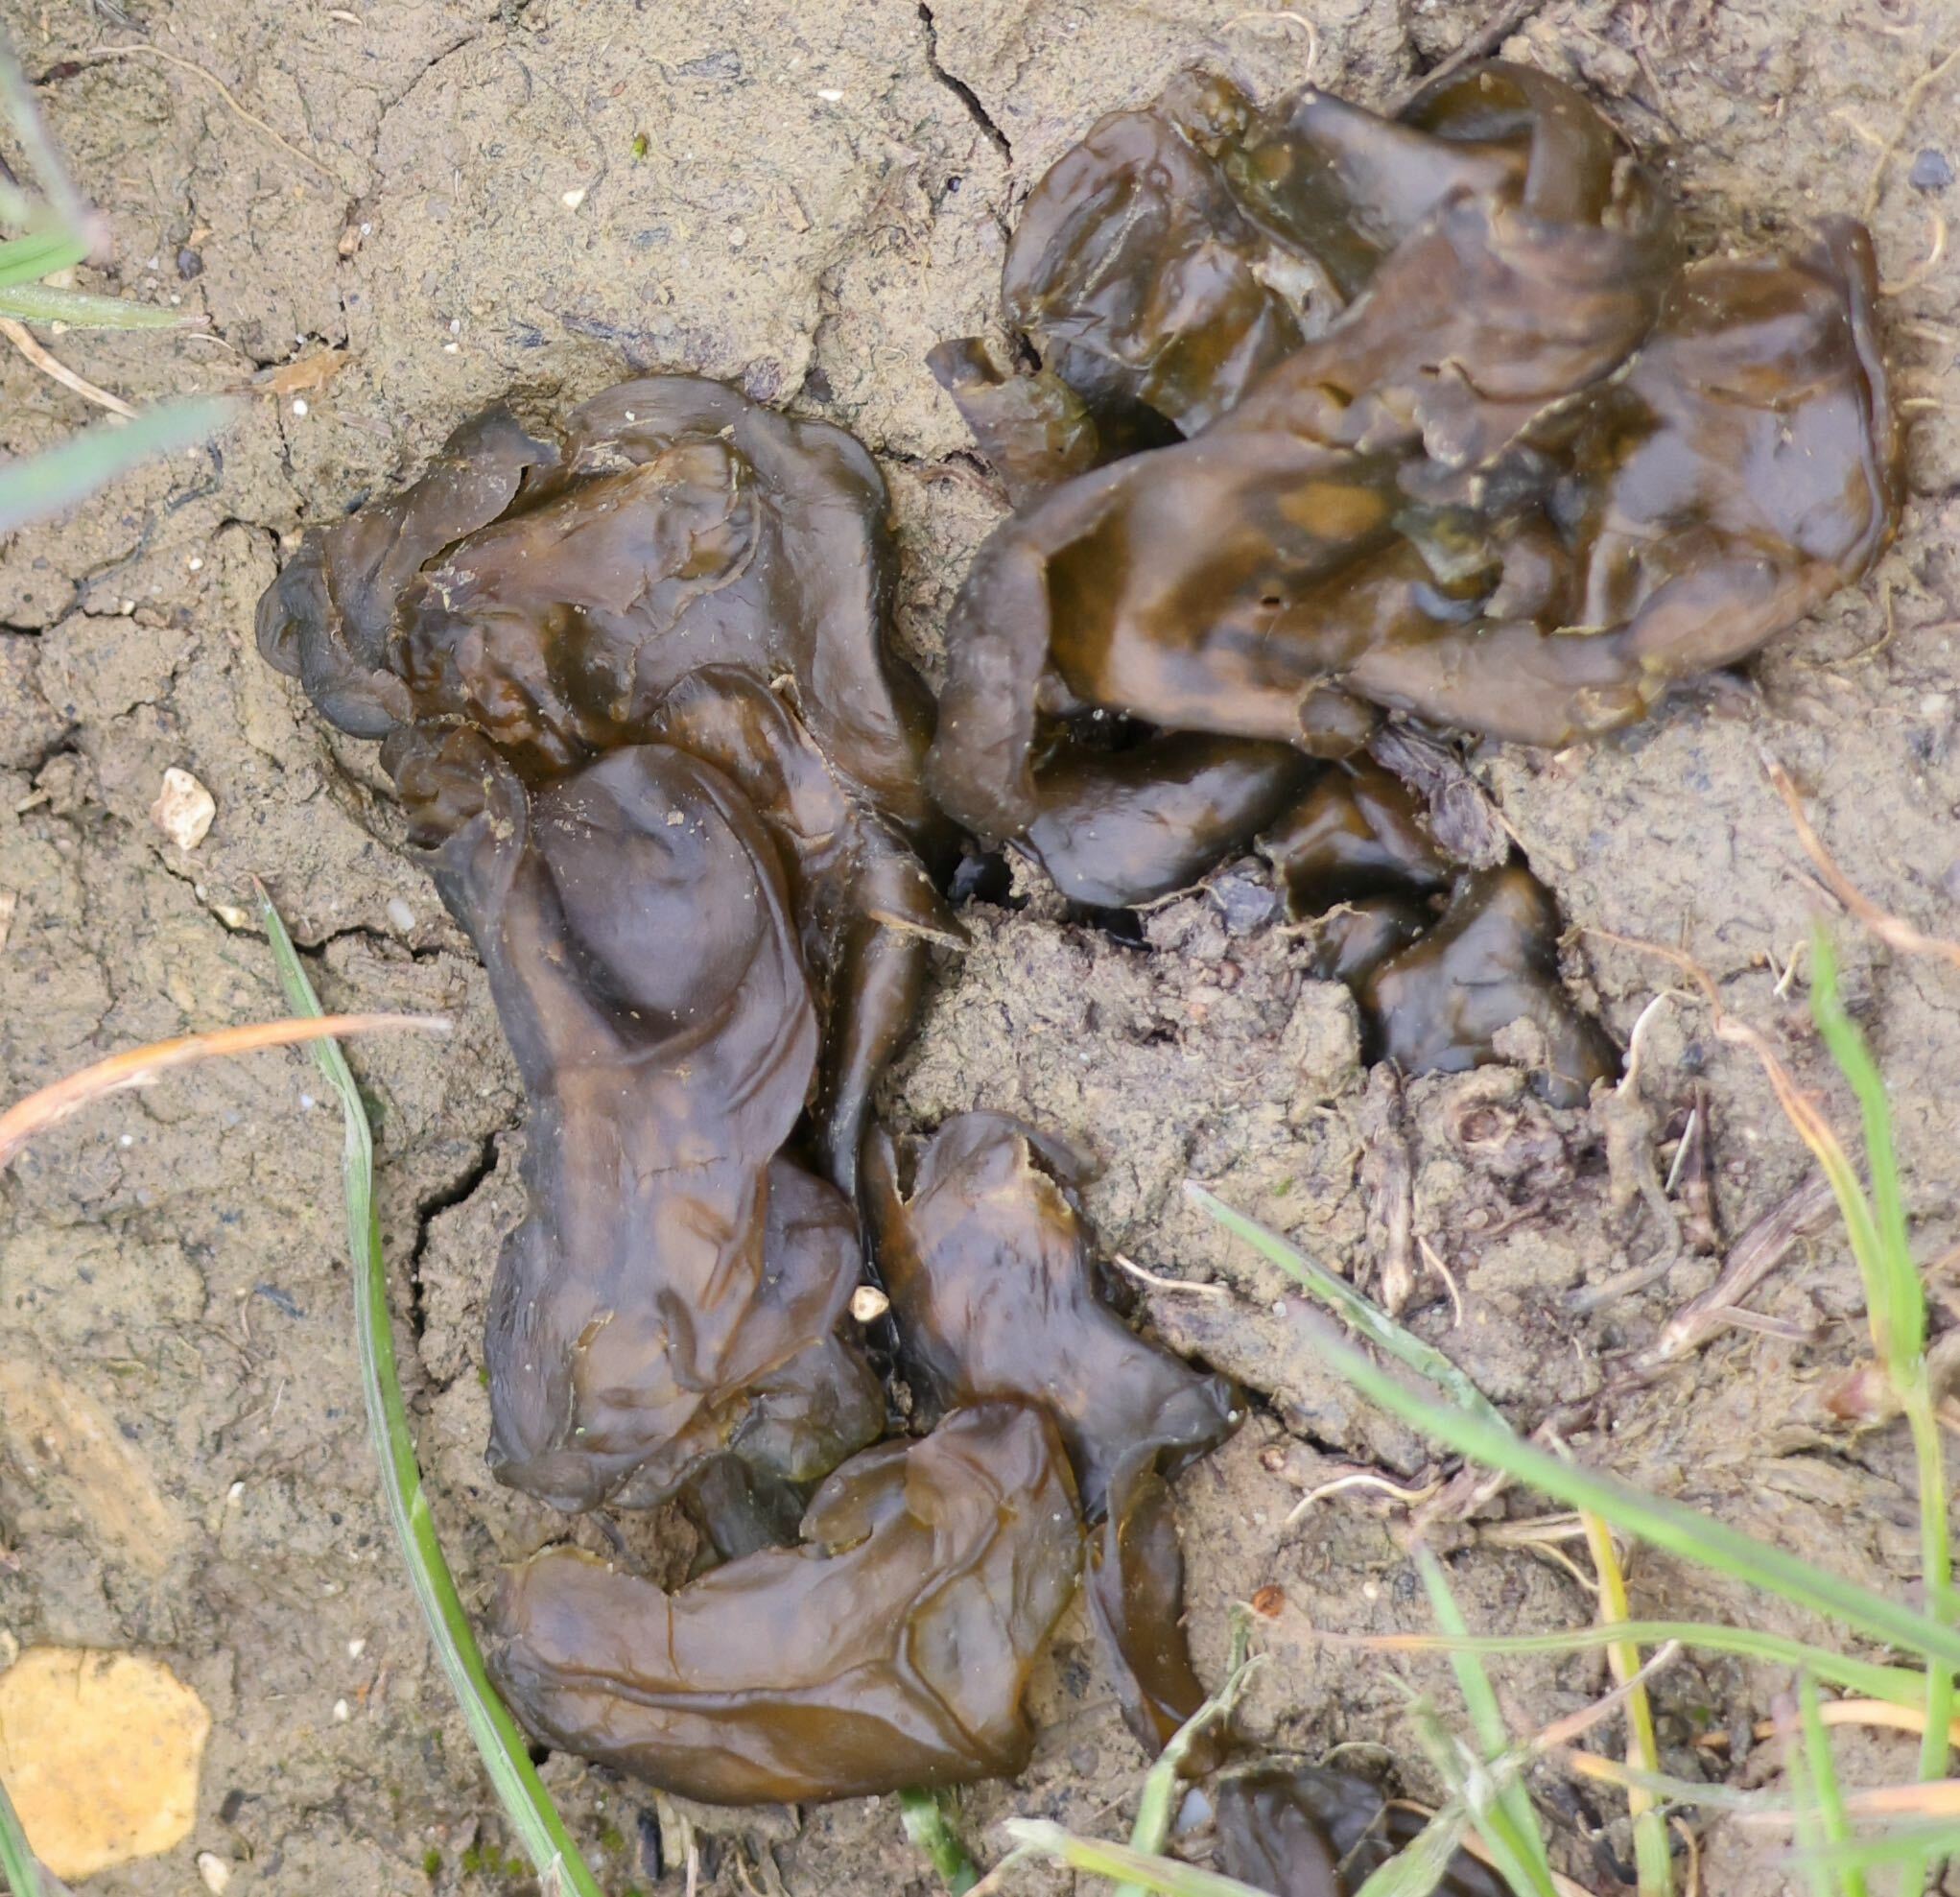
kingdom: Bacteria
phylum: Cyanobacteria
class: Cyanobacteriia
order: Cyanobacteriales
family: Nostocaceae
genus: Nostoc
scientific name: Nostoc commune
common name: Star jelly
